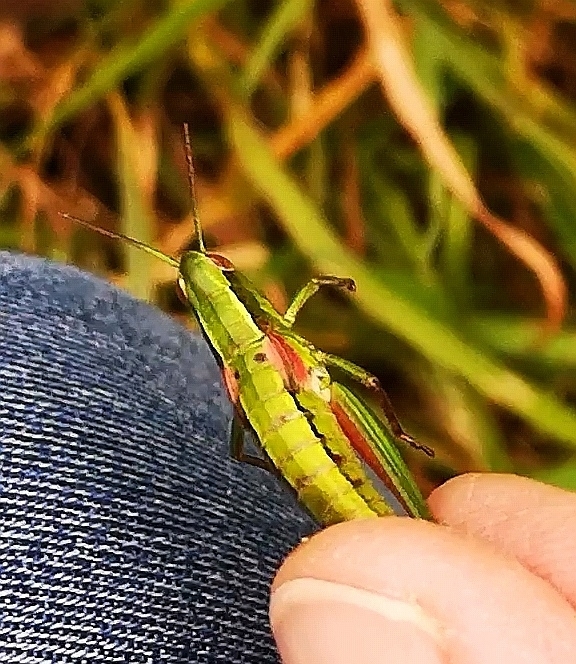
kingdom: Animalia
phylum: Arthropoda
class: Insecta
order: Orthoptera
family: Acrididae
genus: Euthystira
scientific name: Euthystira brachyptera
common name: Small gold grasshopper
